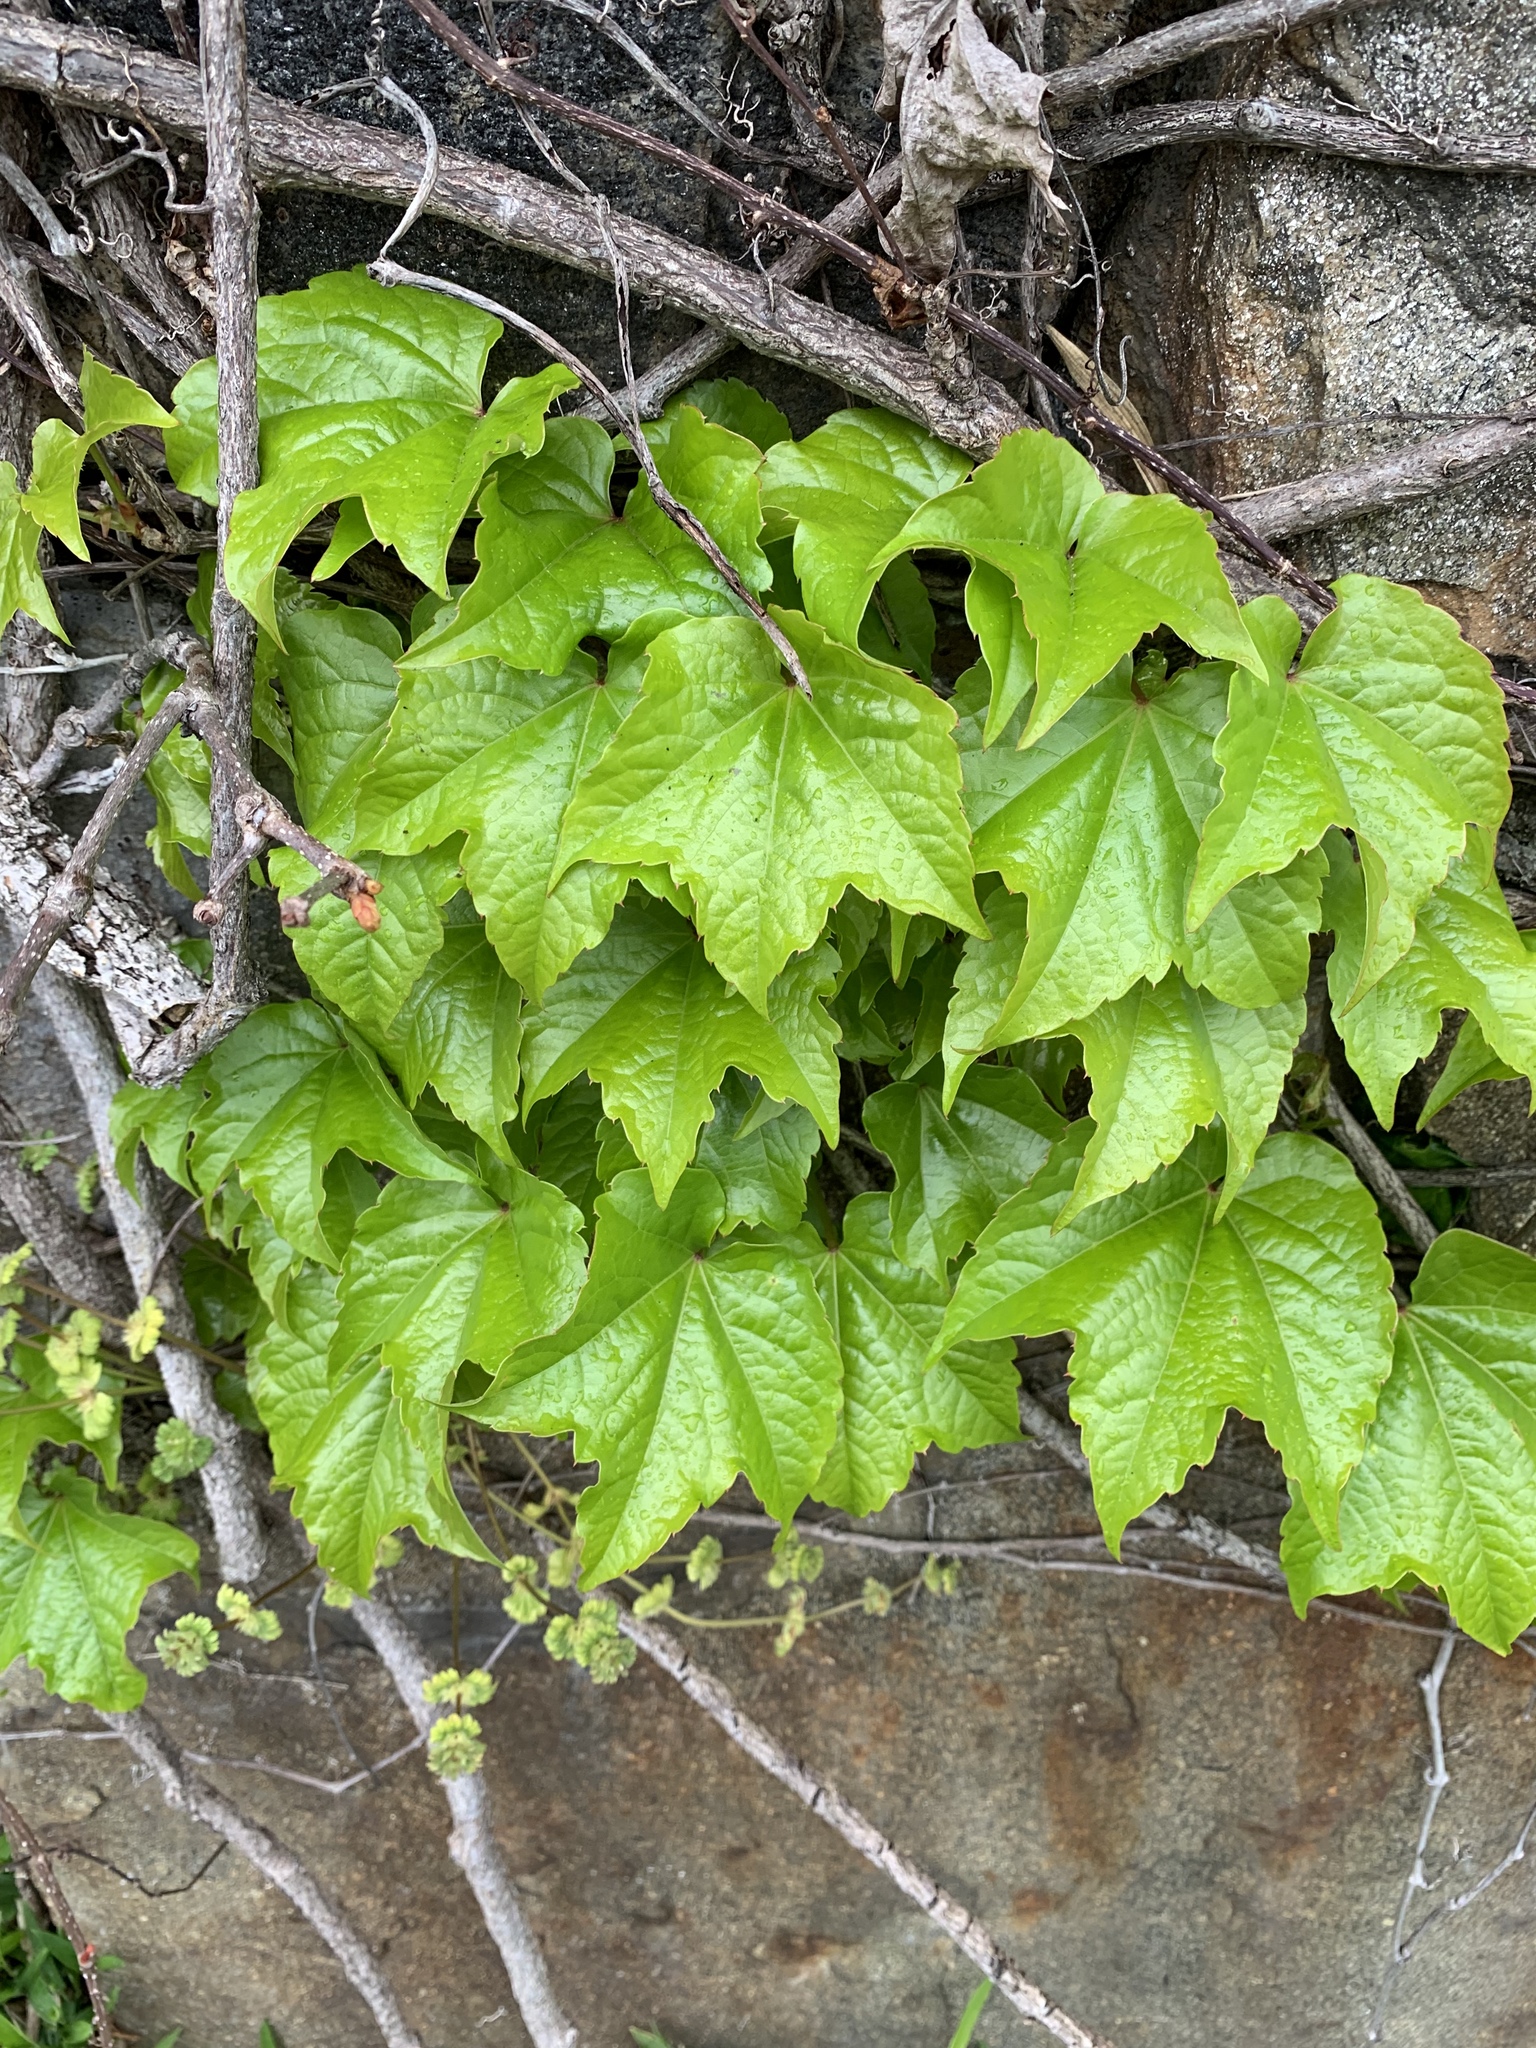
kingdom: Plantae
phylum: Tracheophyta
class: Magnoliopsida
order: Vitales
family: Vitaceae
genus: Parthenocissus
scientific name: Parthenocissus tricuspidata
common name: Boston ivy
